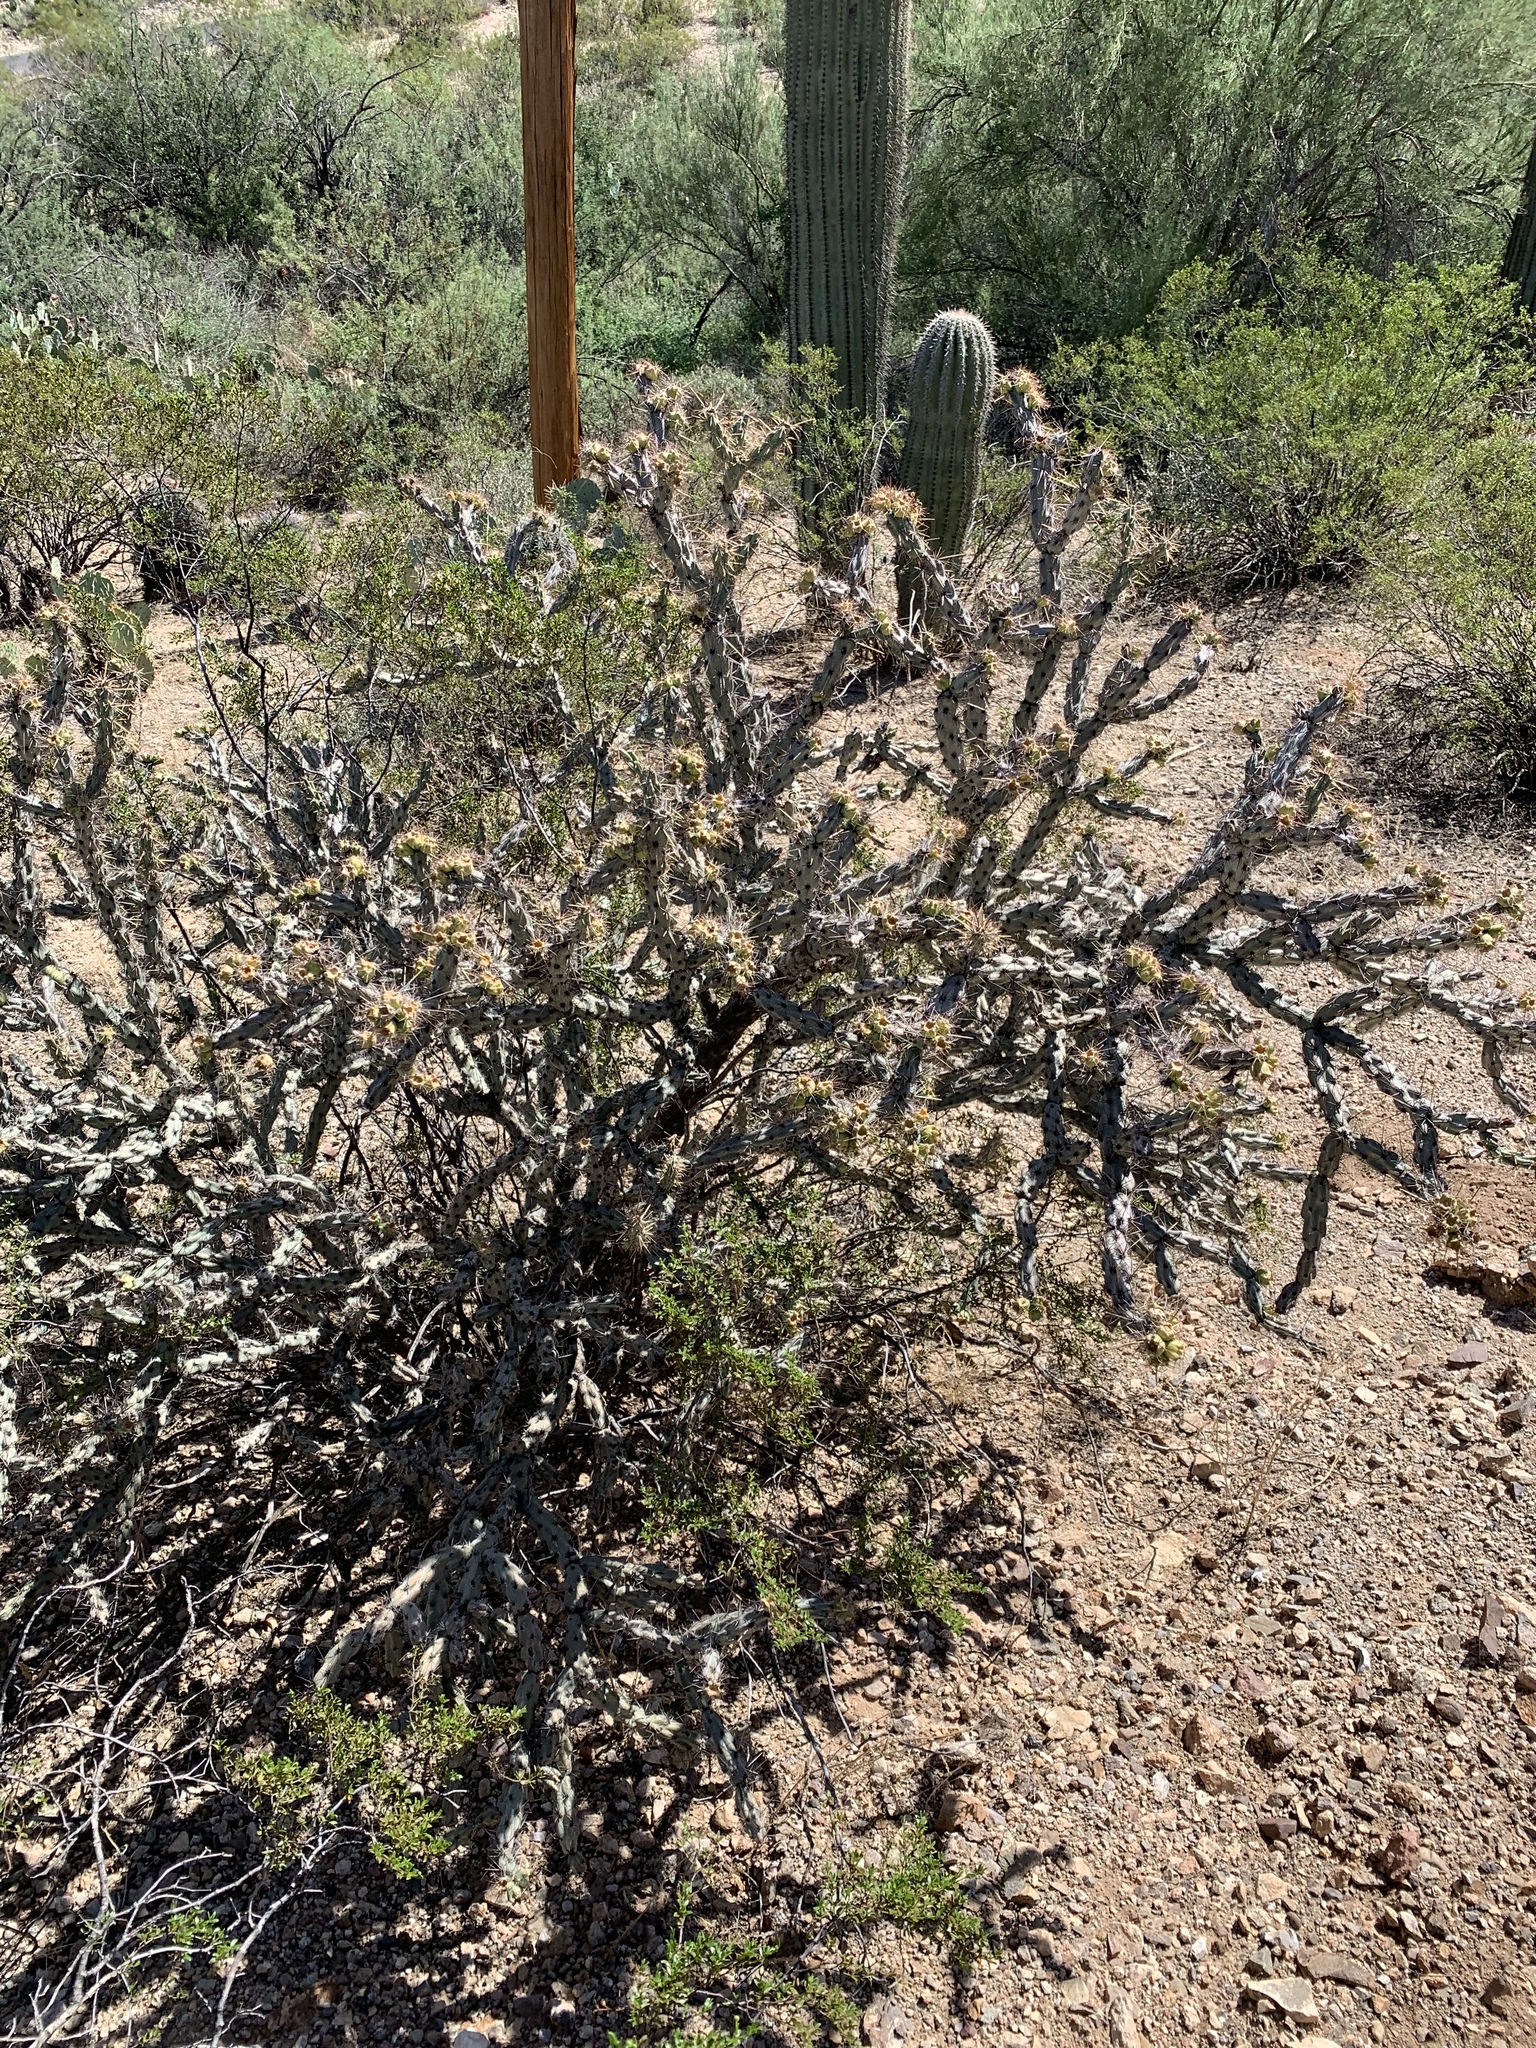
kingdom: Plantae
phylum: Tracheophyta
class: Magnoliopsida
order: Caryophyllales
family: Cactaceae
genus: Cylindropuntia
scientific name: Cylindropuntia acanthocarpa
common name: Buckhorn cholla
